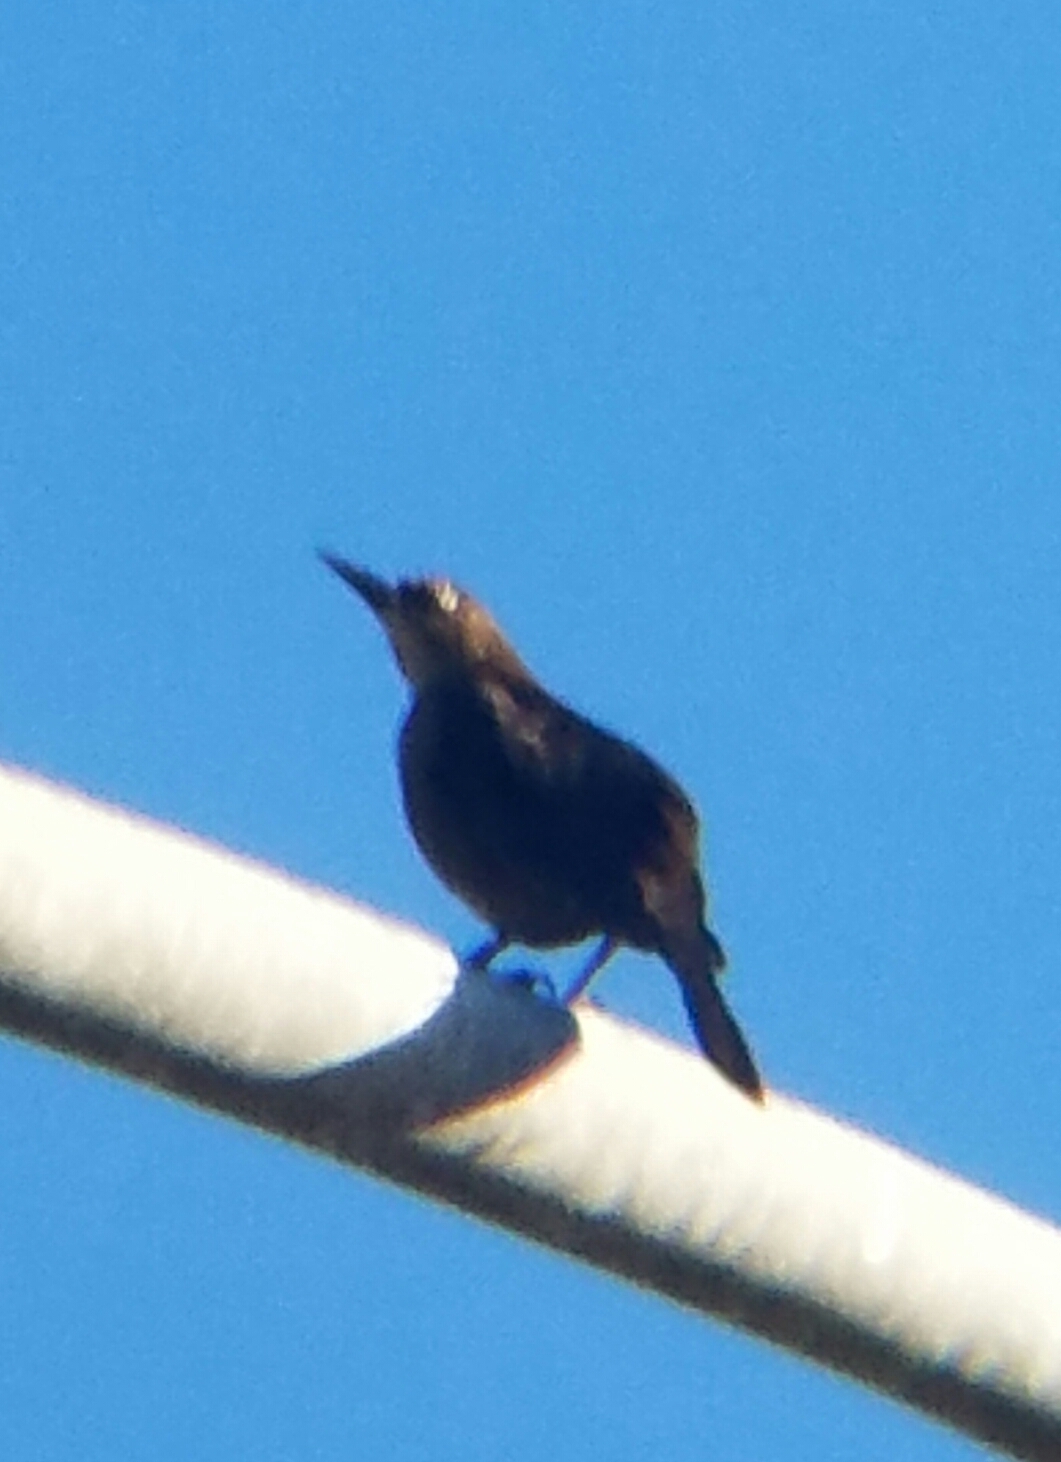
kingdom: Animalia
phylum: Chordata
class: Aves
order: Passeriformes
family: Icteridae
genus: Quiscalus
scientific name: Quiscalus mexicanus
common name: Great-tailed grackle
